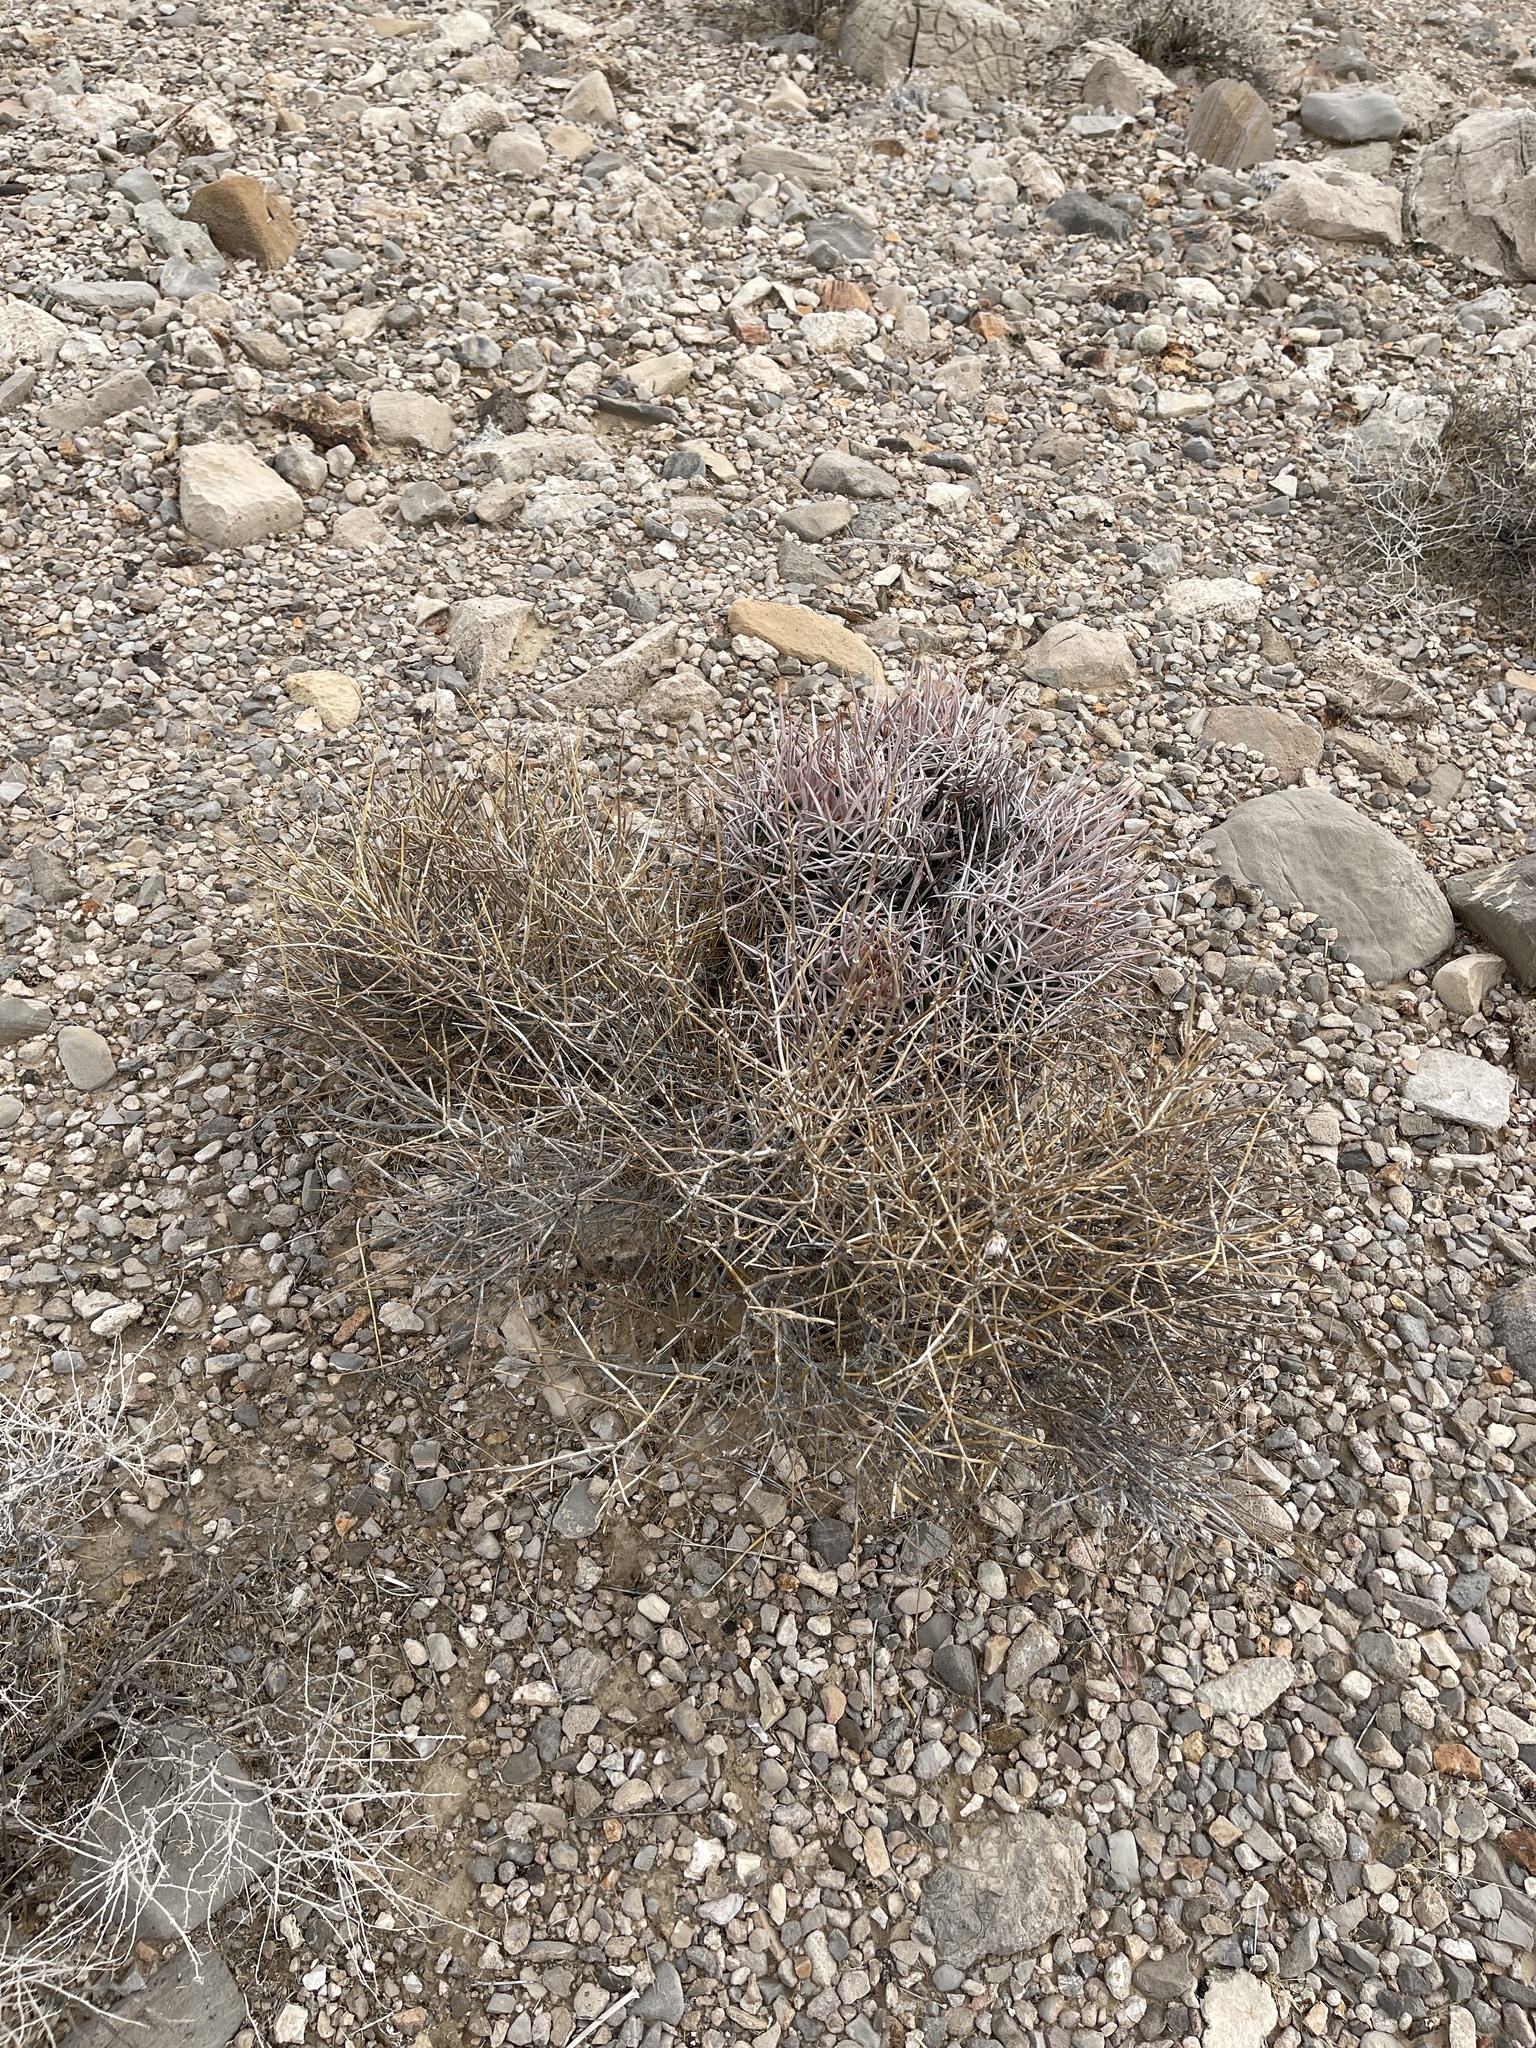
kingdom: Plantae
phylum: Tracheophyta
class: Gnetopsida
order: Ephedrales
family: Ephedraceae
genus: Ephedra
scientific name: Ephedra nevadensis
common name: Gray ephedra
